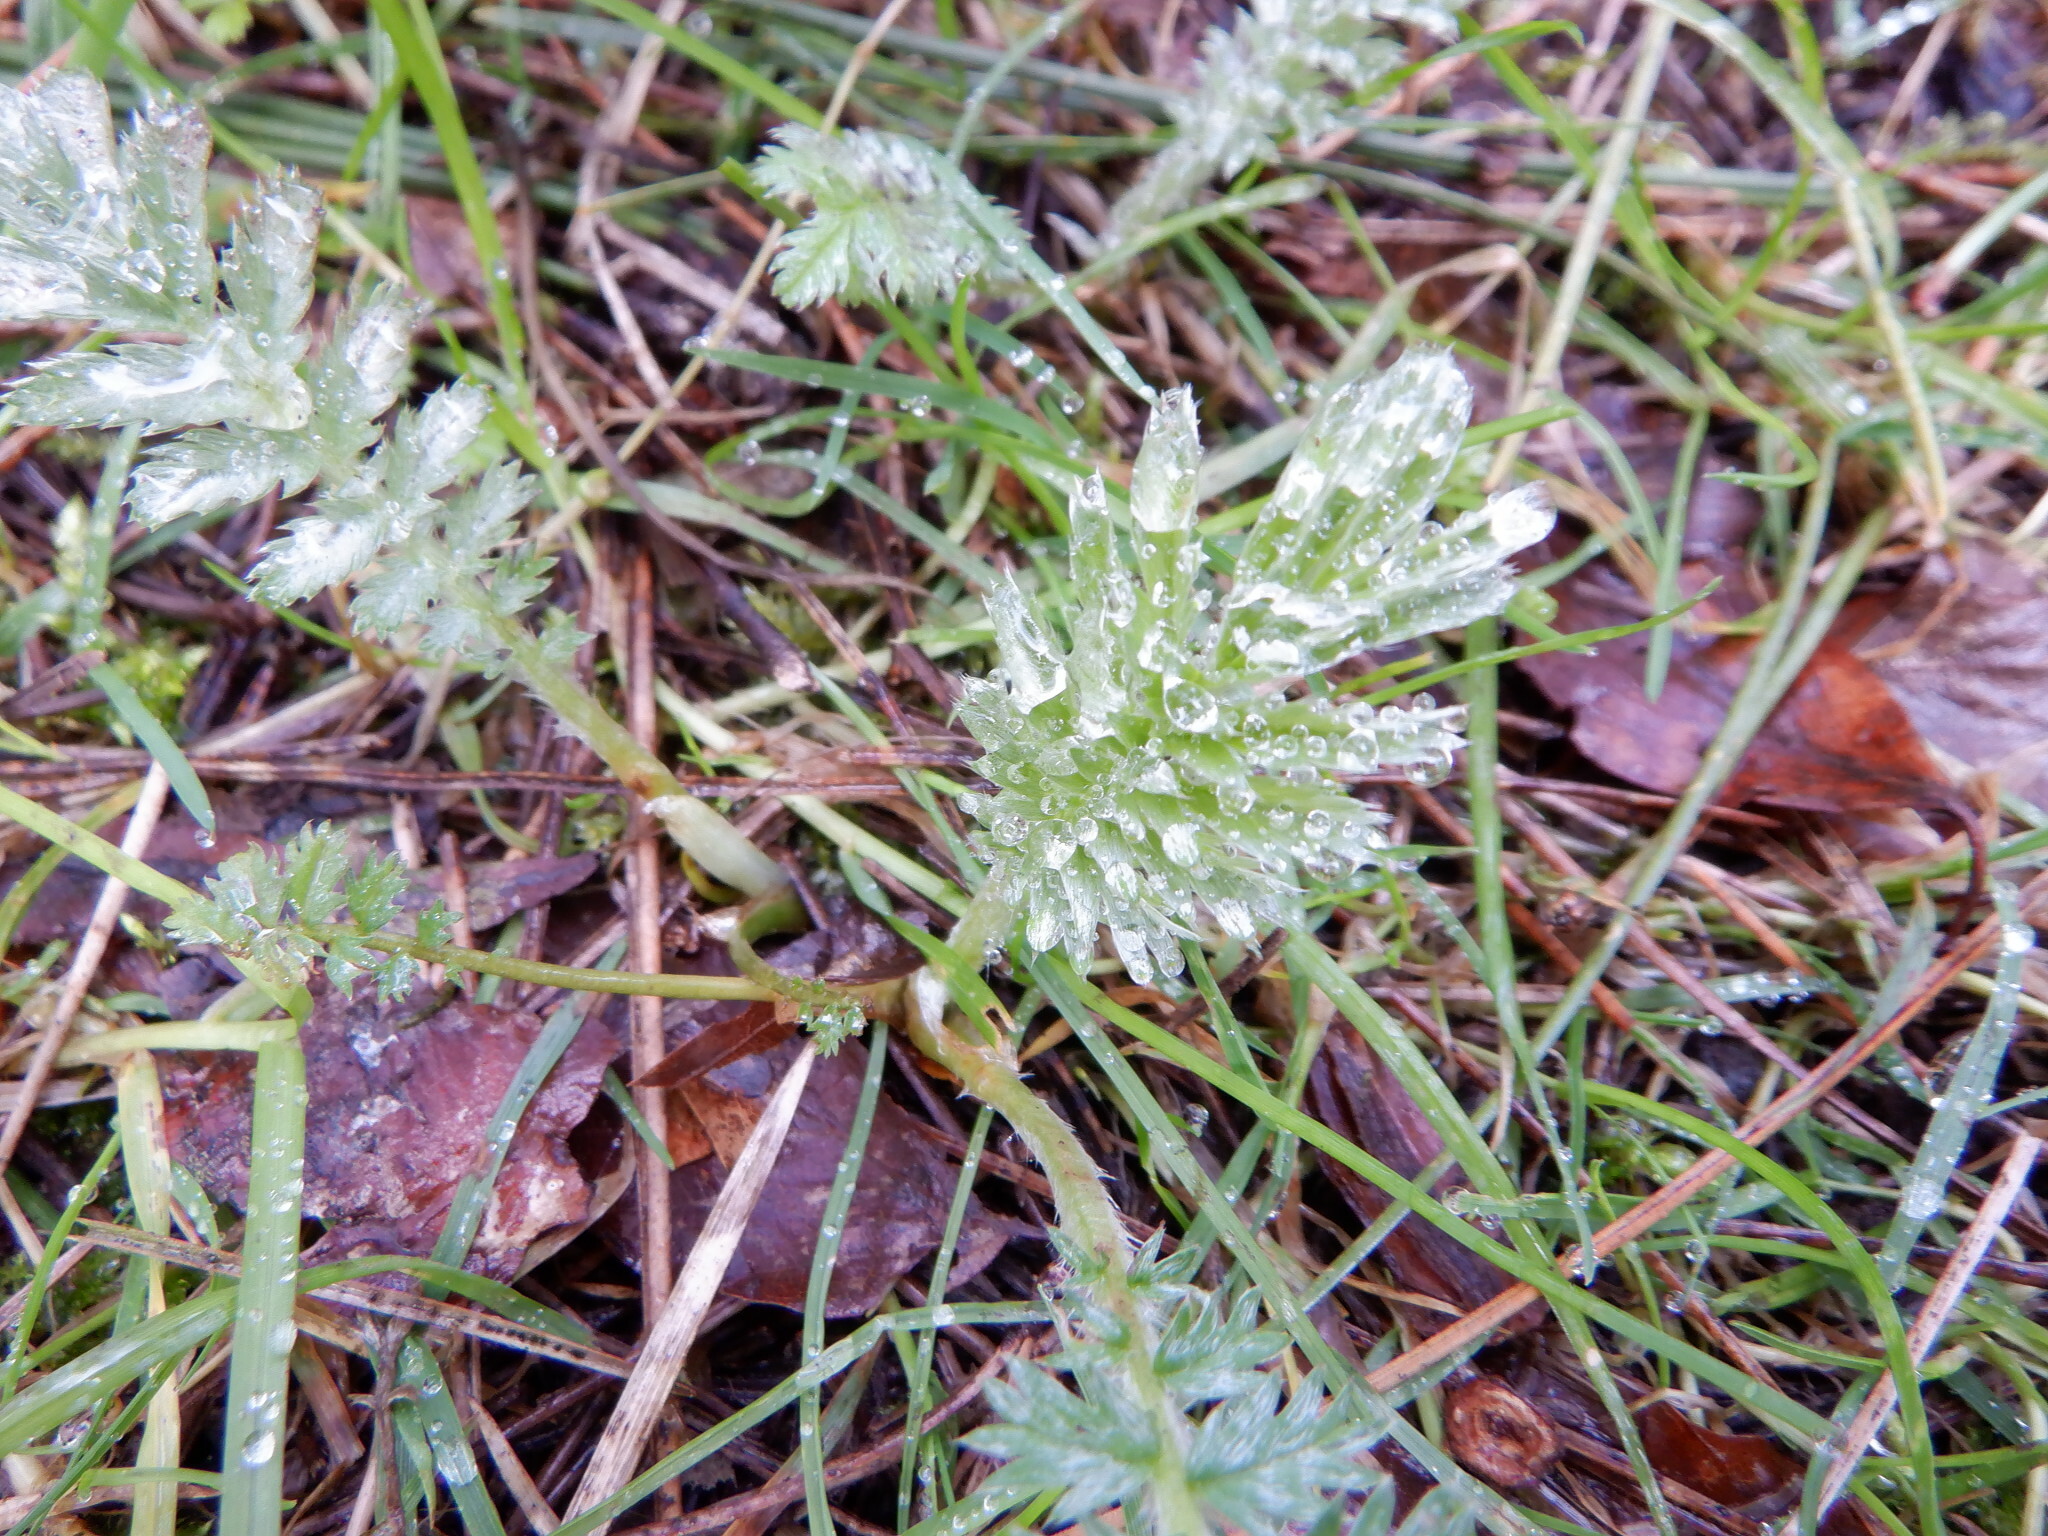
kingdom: Plantae
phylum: Tracheophyta
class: Magnoliopsida
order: Rosales
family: Rosaceae
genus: Argentina
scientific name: Argentina anserina
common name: Common silverweed
